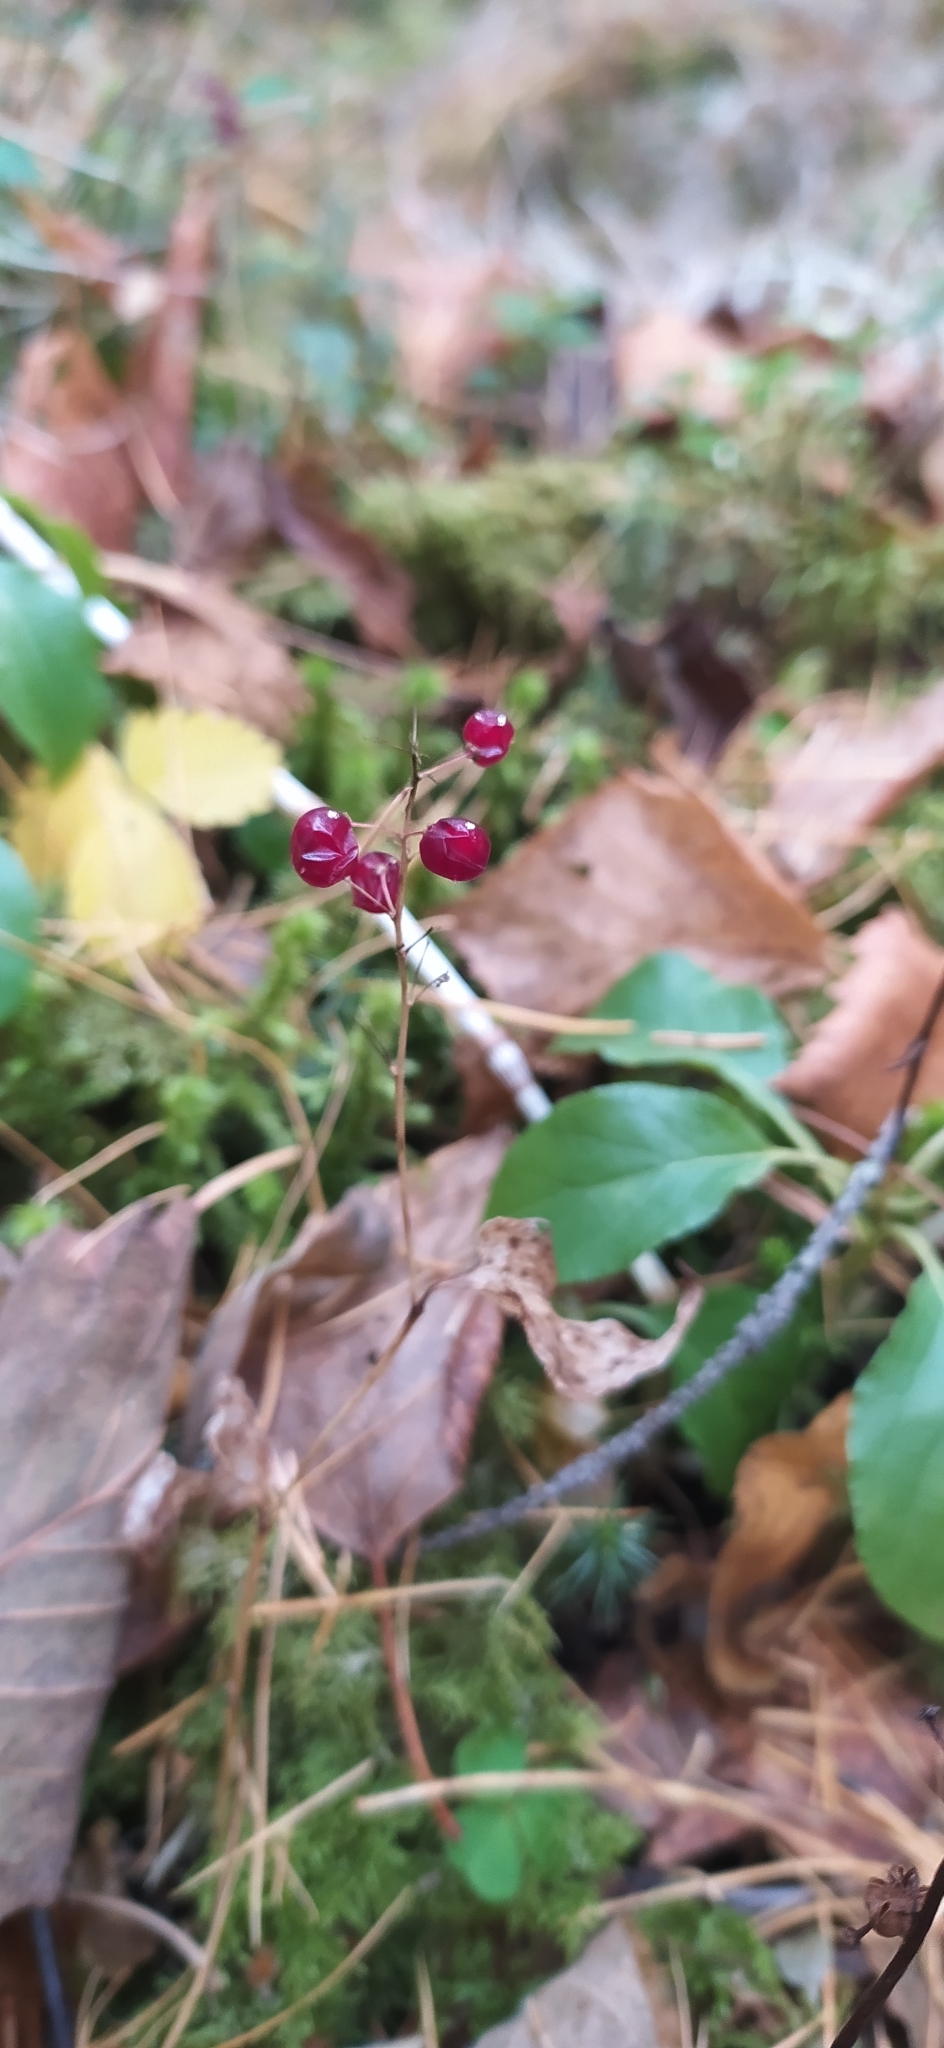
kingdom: Plantae
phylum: Tracheophyta
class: Liliopsida
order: Asparagales
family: Asparagaceae
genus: Maianthemum
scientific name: Maianthemum bifolium
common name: May lily
